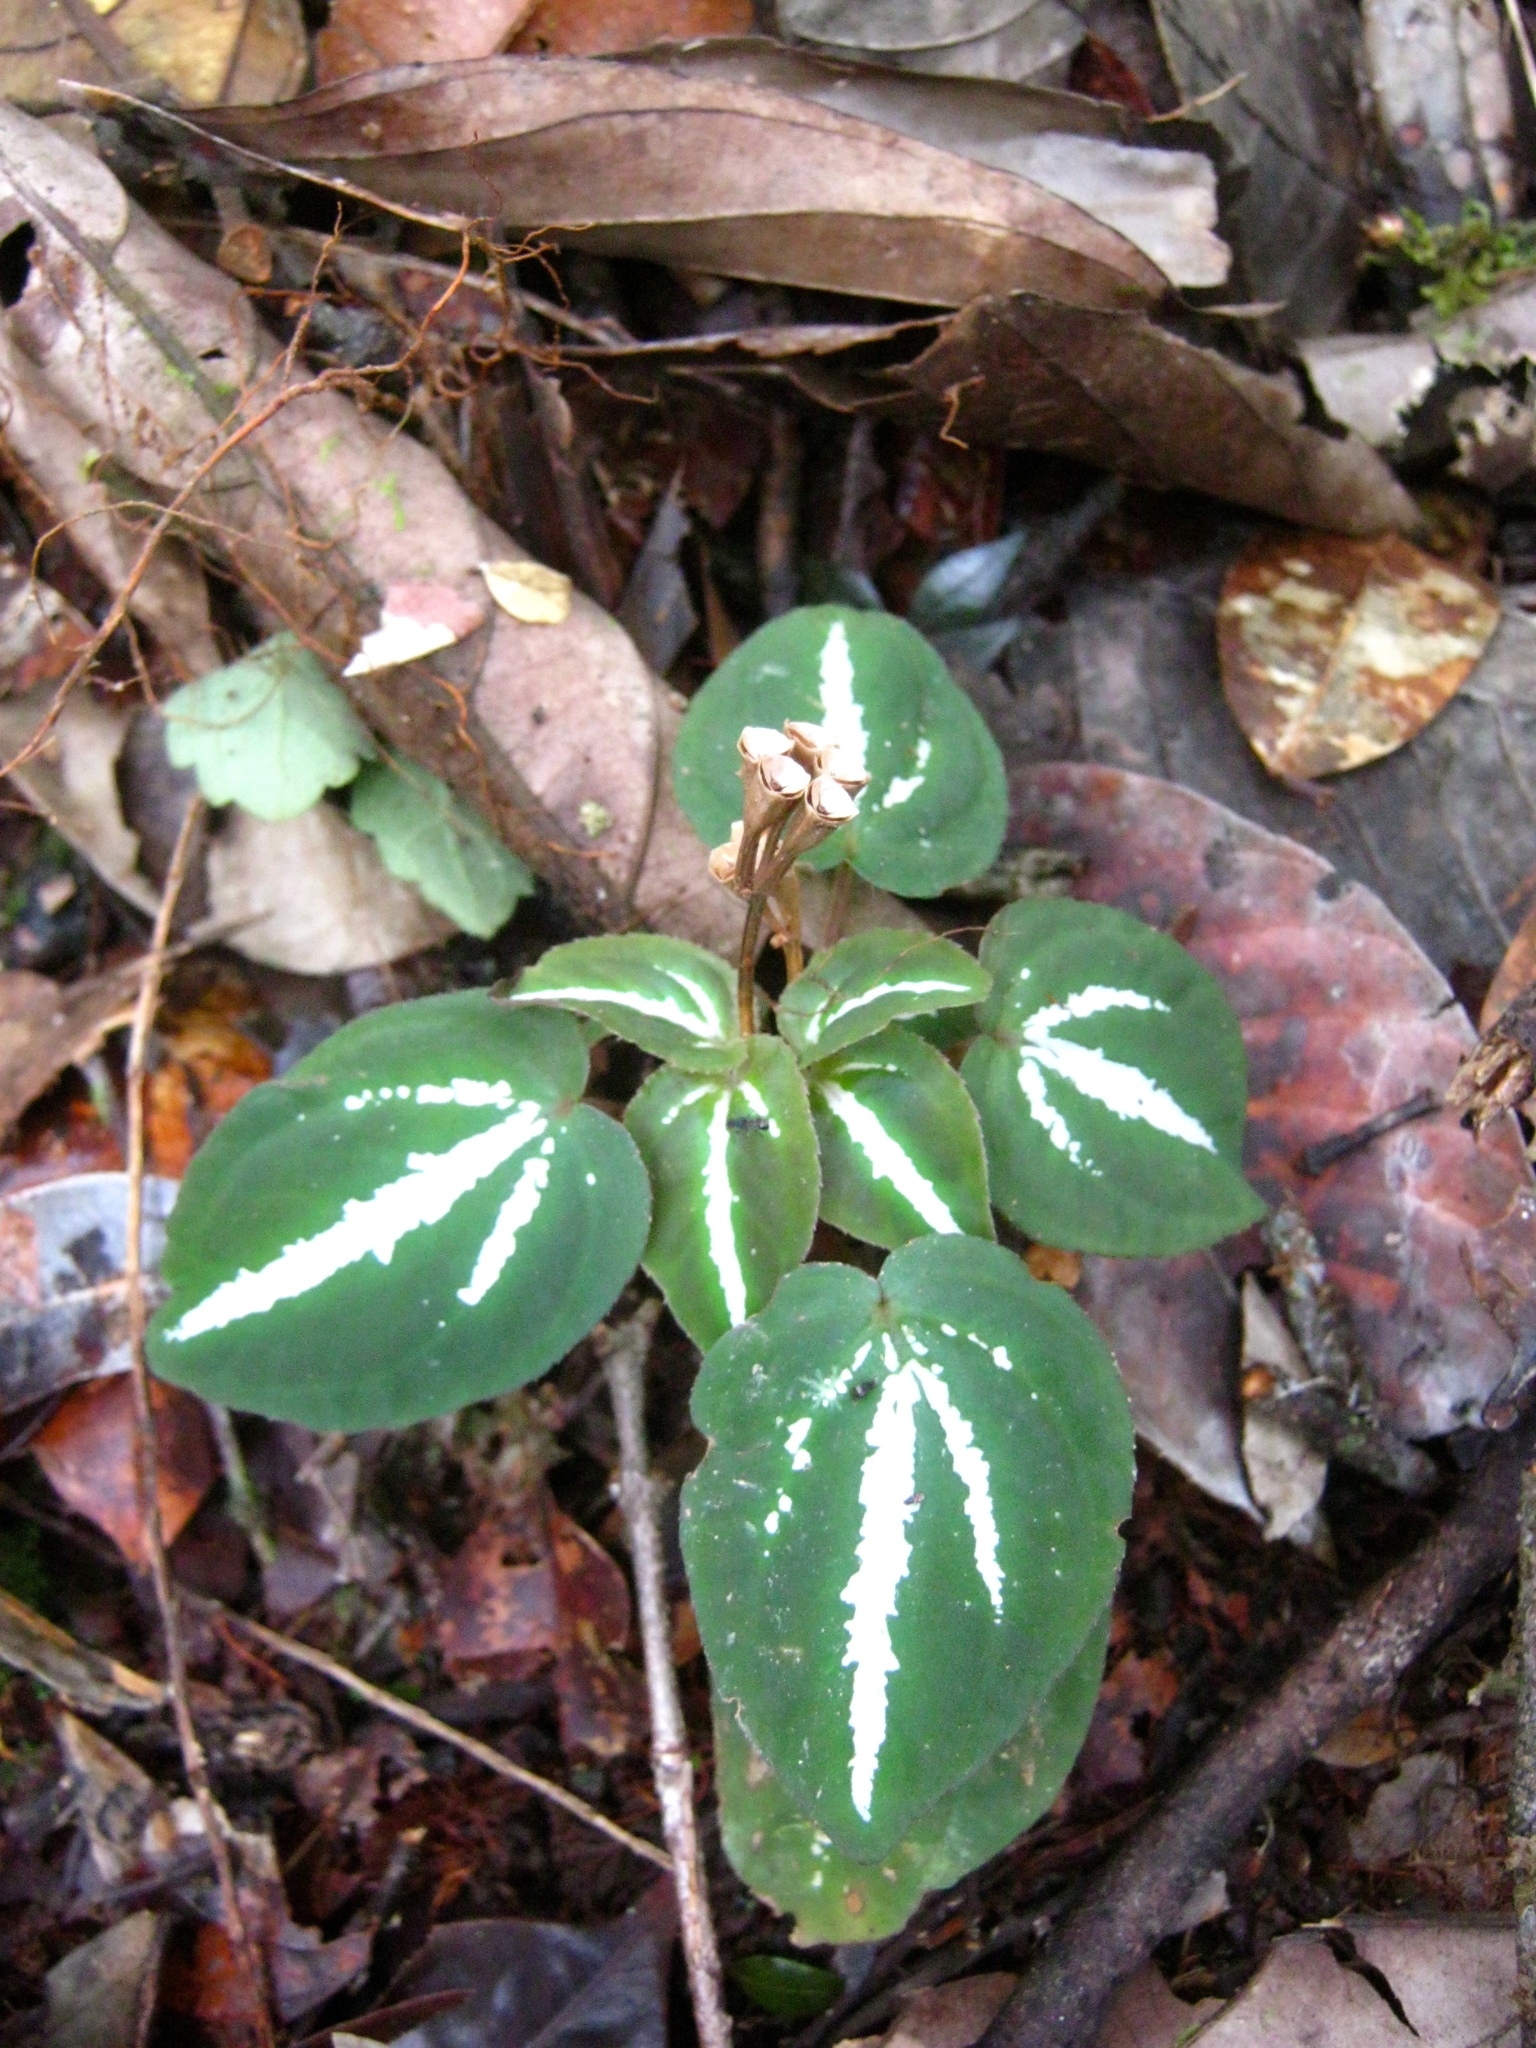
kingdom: Plantae
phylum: Tracheophyta
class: Magnoliopsida
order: Myrtales
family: Melastomataceae
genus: Sonerila
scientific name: Sonerila pulchella
